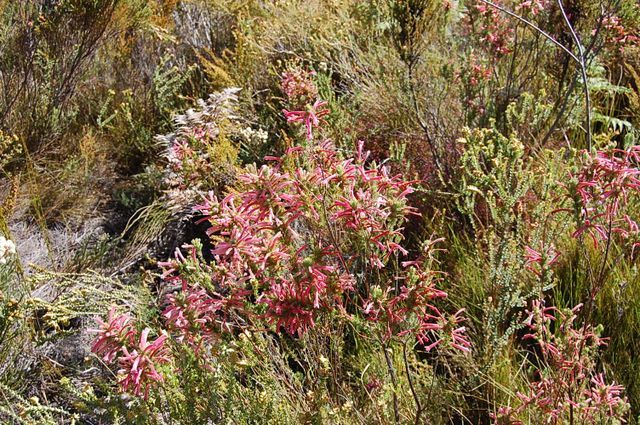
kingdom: Plantae
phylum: Tracheophyta
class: Magnoliopsida
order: Ericales
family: Ericaceae
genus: Erica
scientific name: Erica curviflora
